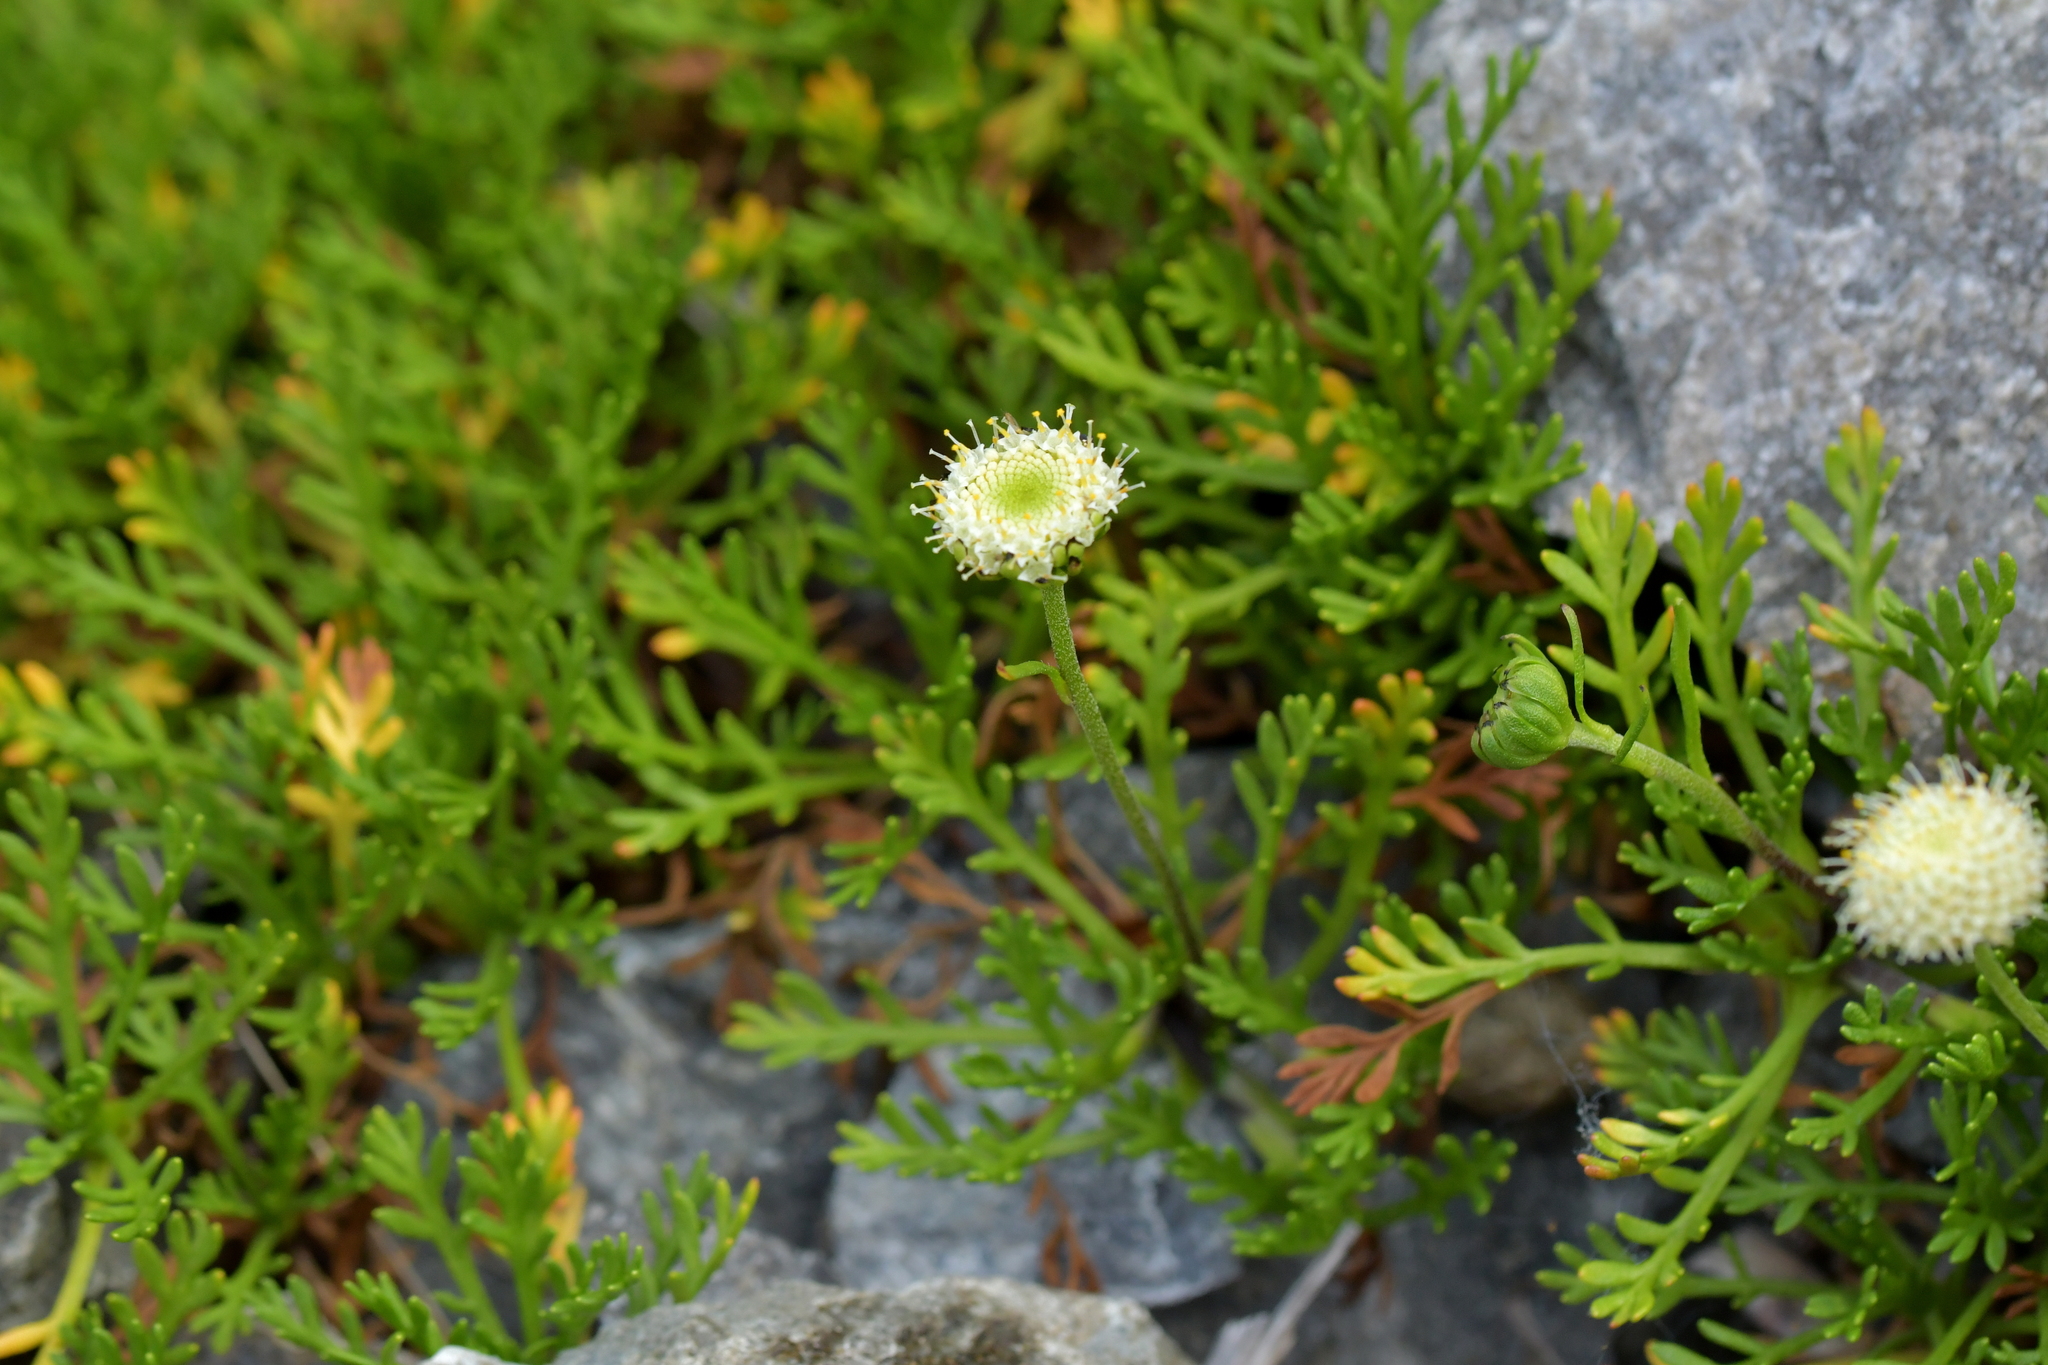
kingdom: Plantae
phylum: Tracheophyta
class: Magnoliopsida
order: Asterales
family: Asteraceae
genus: Leptinella
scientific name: Leptinella pyrethrifolia
